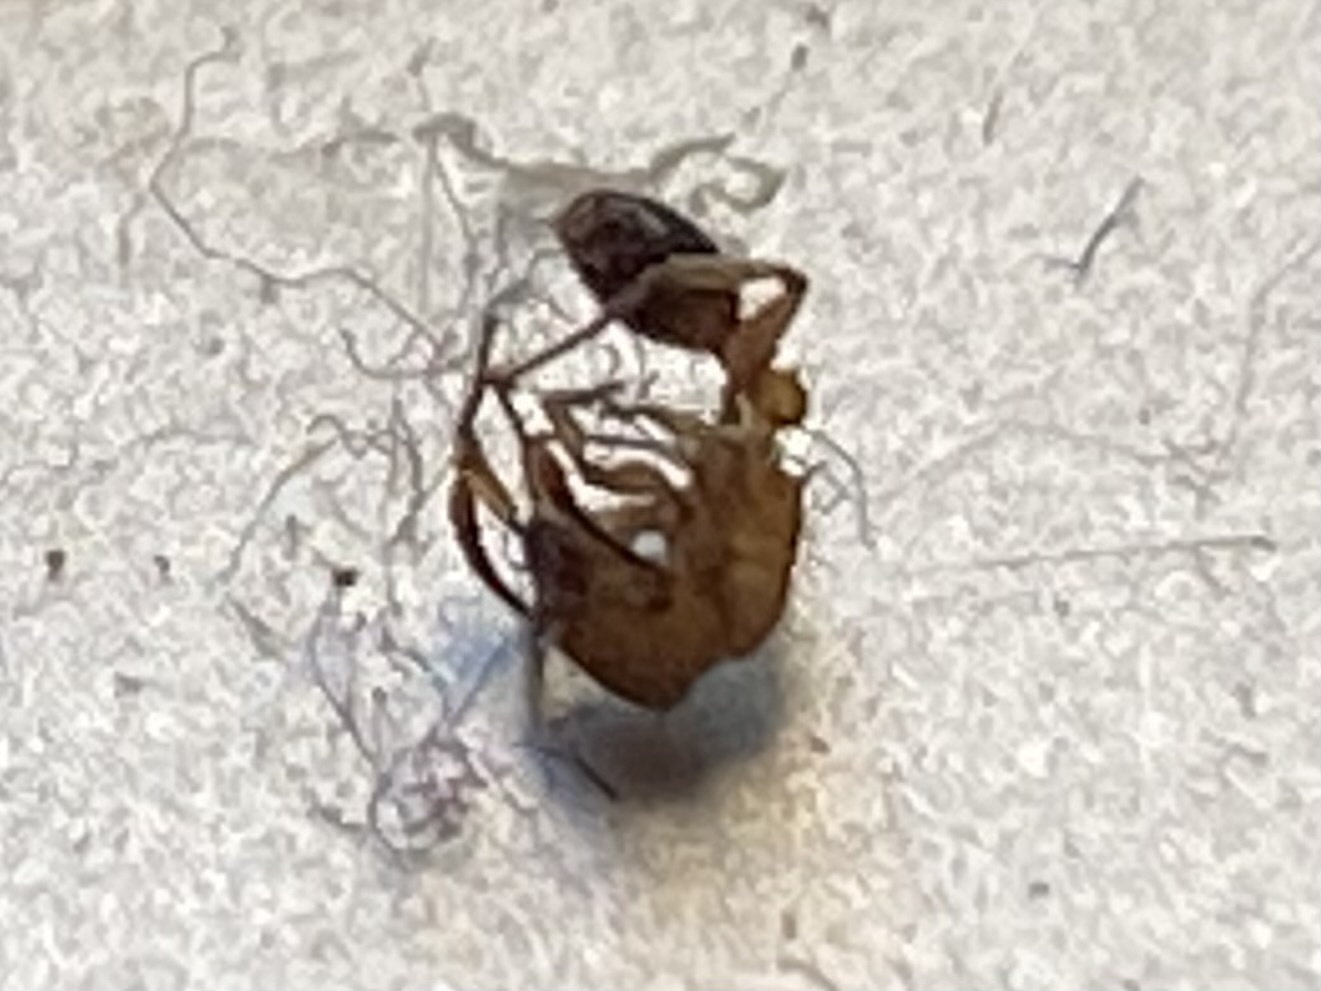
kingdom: Animalia
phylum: Arthropoda
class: Insecta
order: Hymenoptera
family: Formicidae
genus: Tetramorium
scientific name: Tetramorium bicarinatum
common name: Guinea ant
